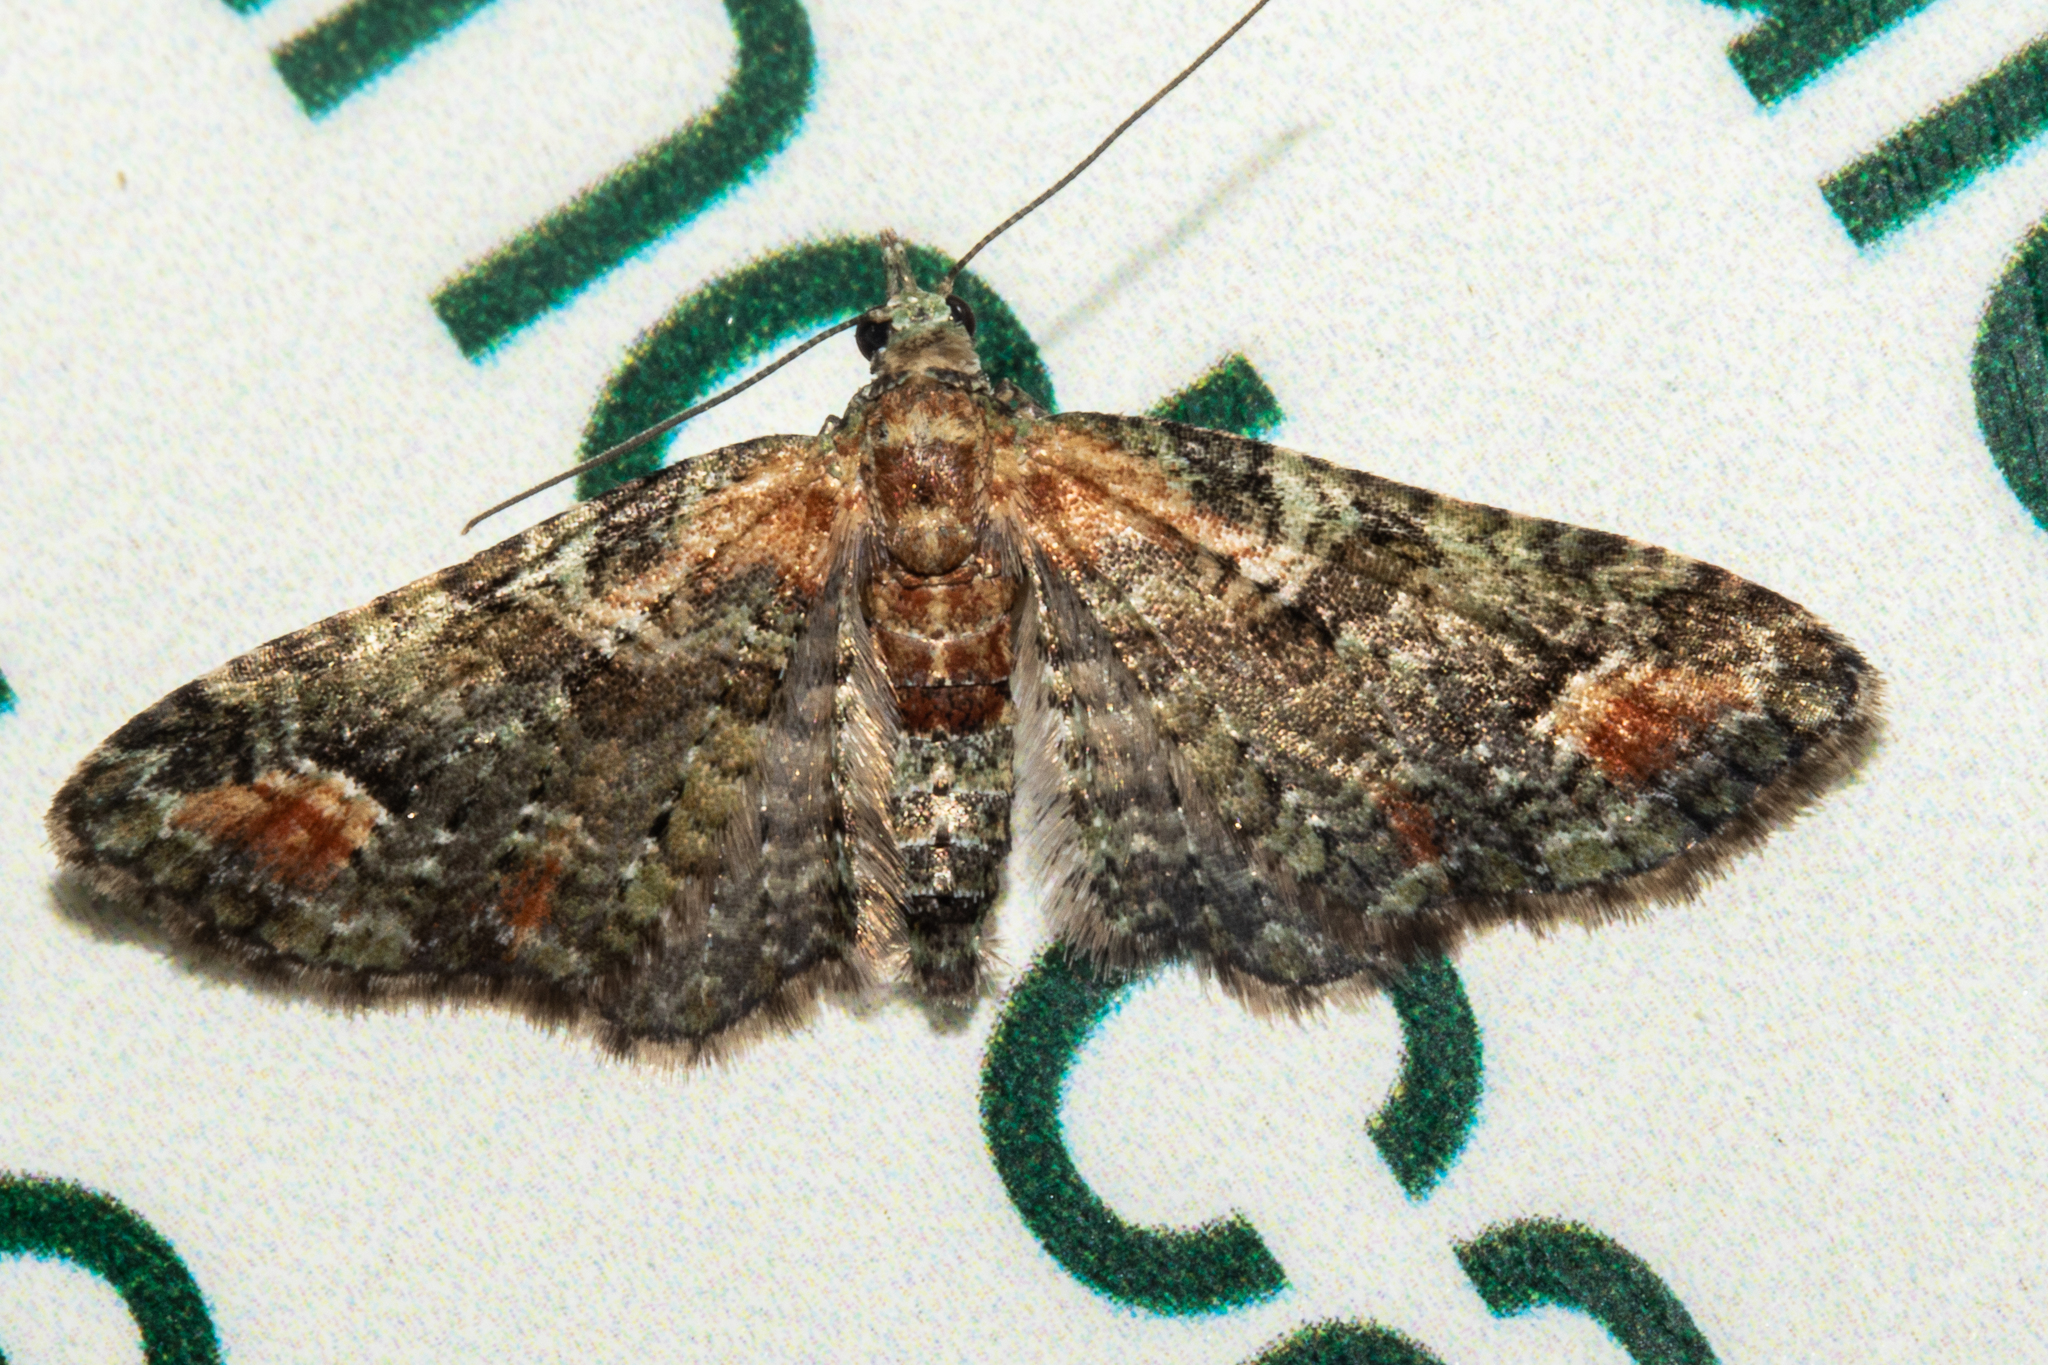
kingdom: Animalia
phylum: Arthropoda
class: Insecta
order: Lepidoptera
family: Geometridae
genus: Idaea
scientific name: Idaea mutanda
